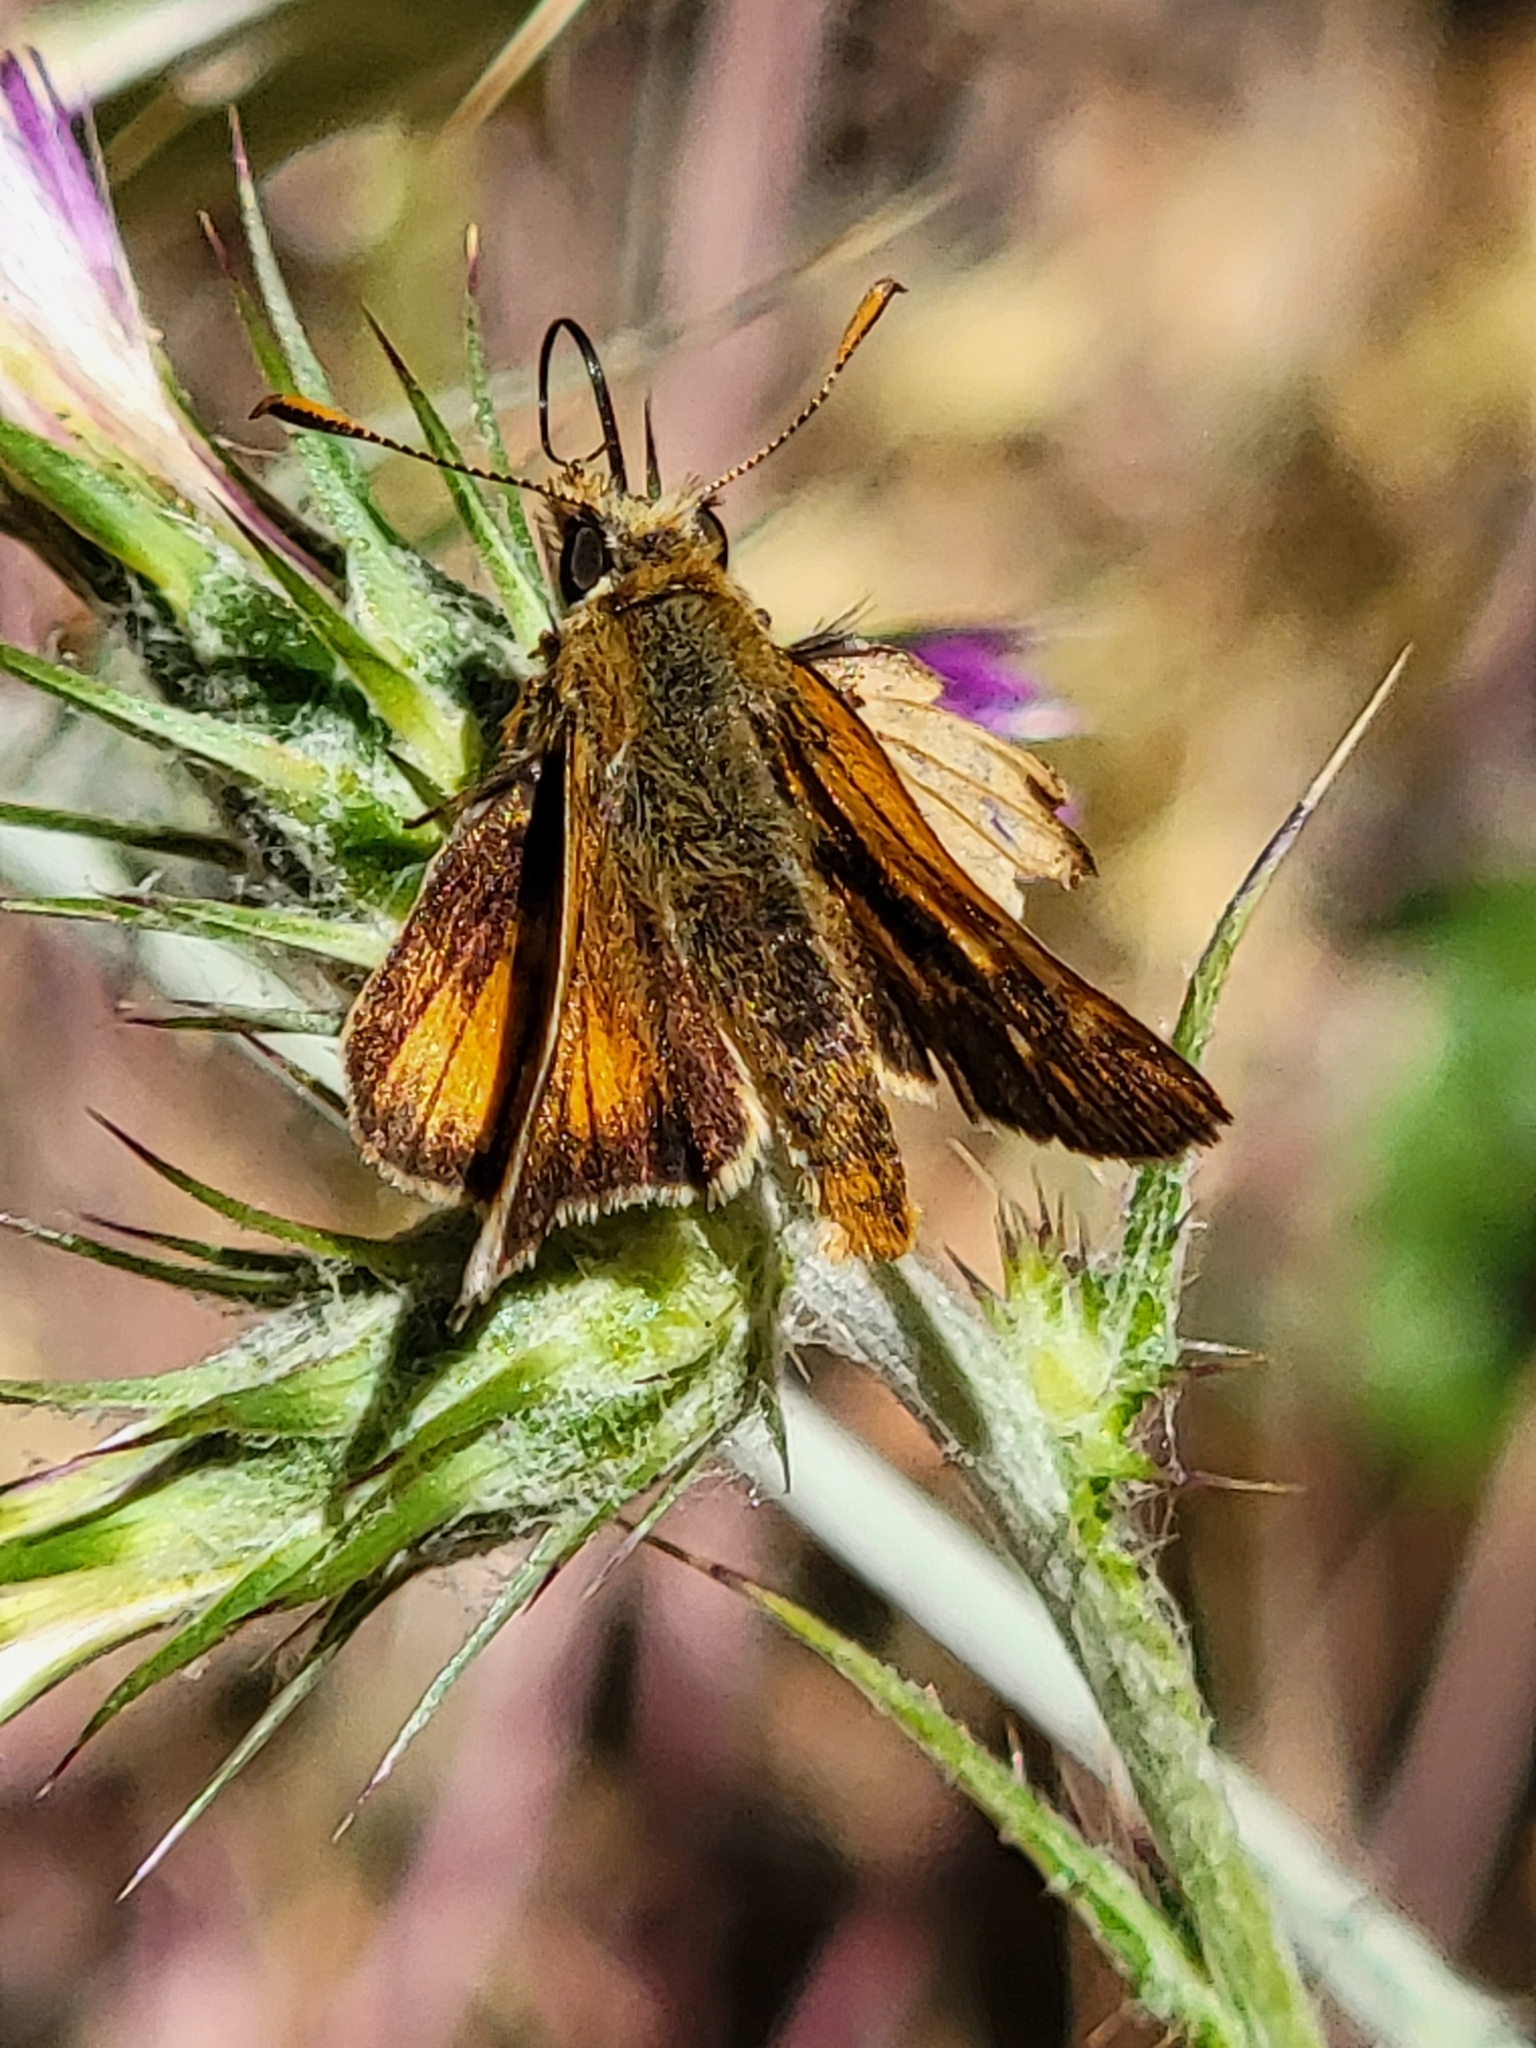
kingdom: Animalia
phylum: Arthropoda
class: Insecta
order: Lepidoptera
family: Hesperiidae
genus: Ochlodes
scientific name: Ochlodes agricola
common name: Rural skipper
